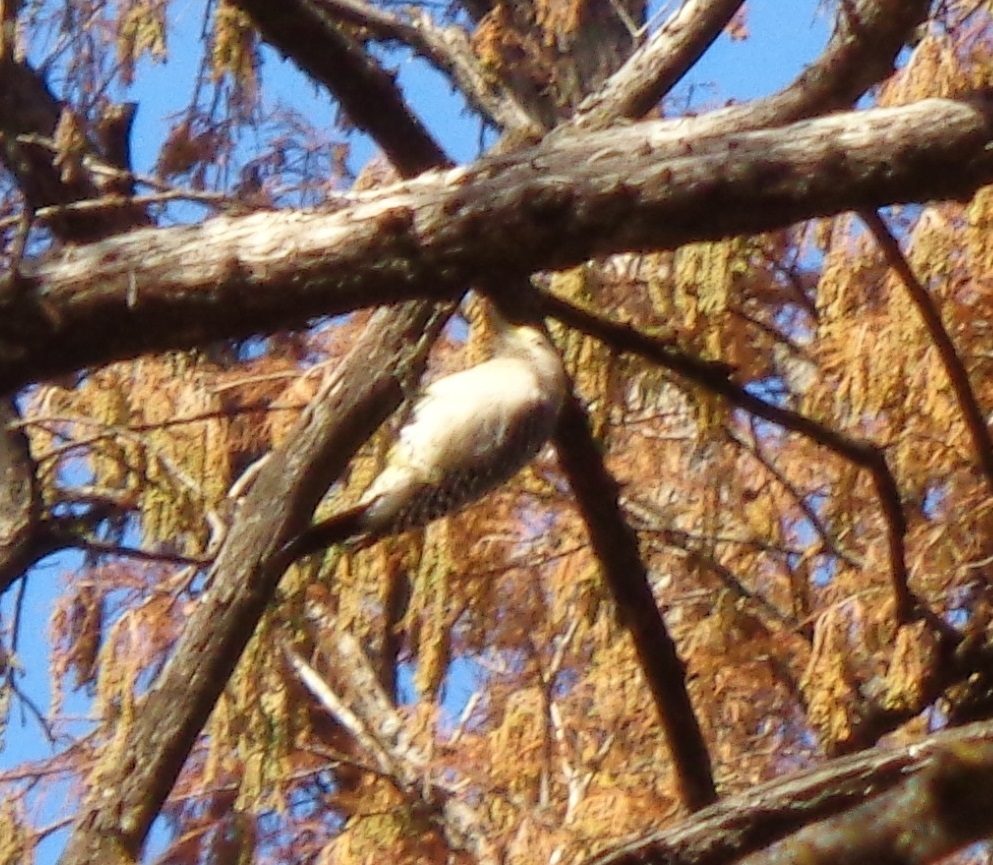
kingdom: Animalia
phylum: Chordata
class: Aves
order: Piciformes
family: Picidae
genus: Melanerpes
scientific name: Melanerpes aurifrons
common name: Golden-fronted woodpecker
